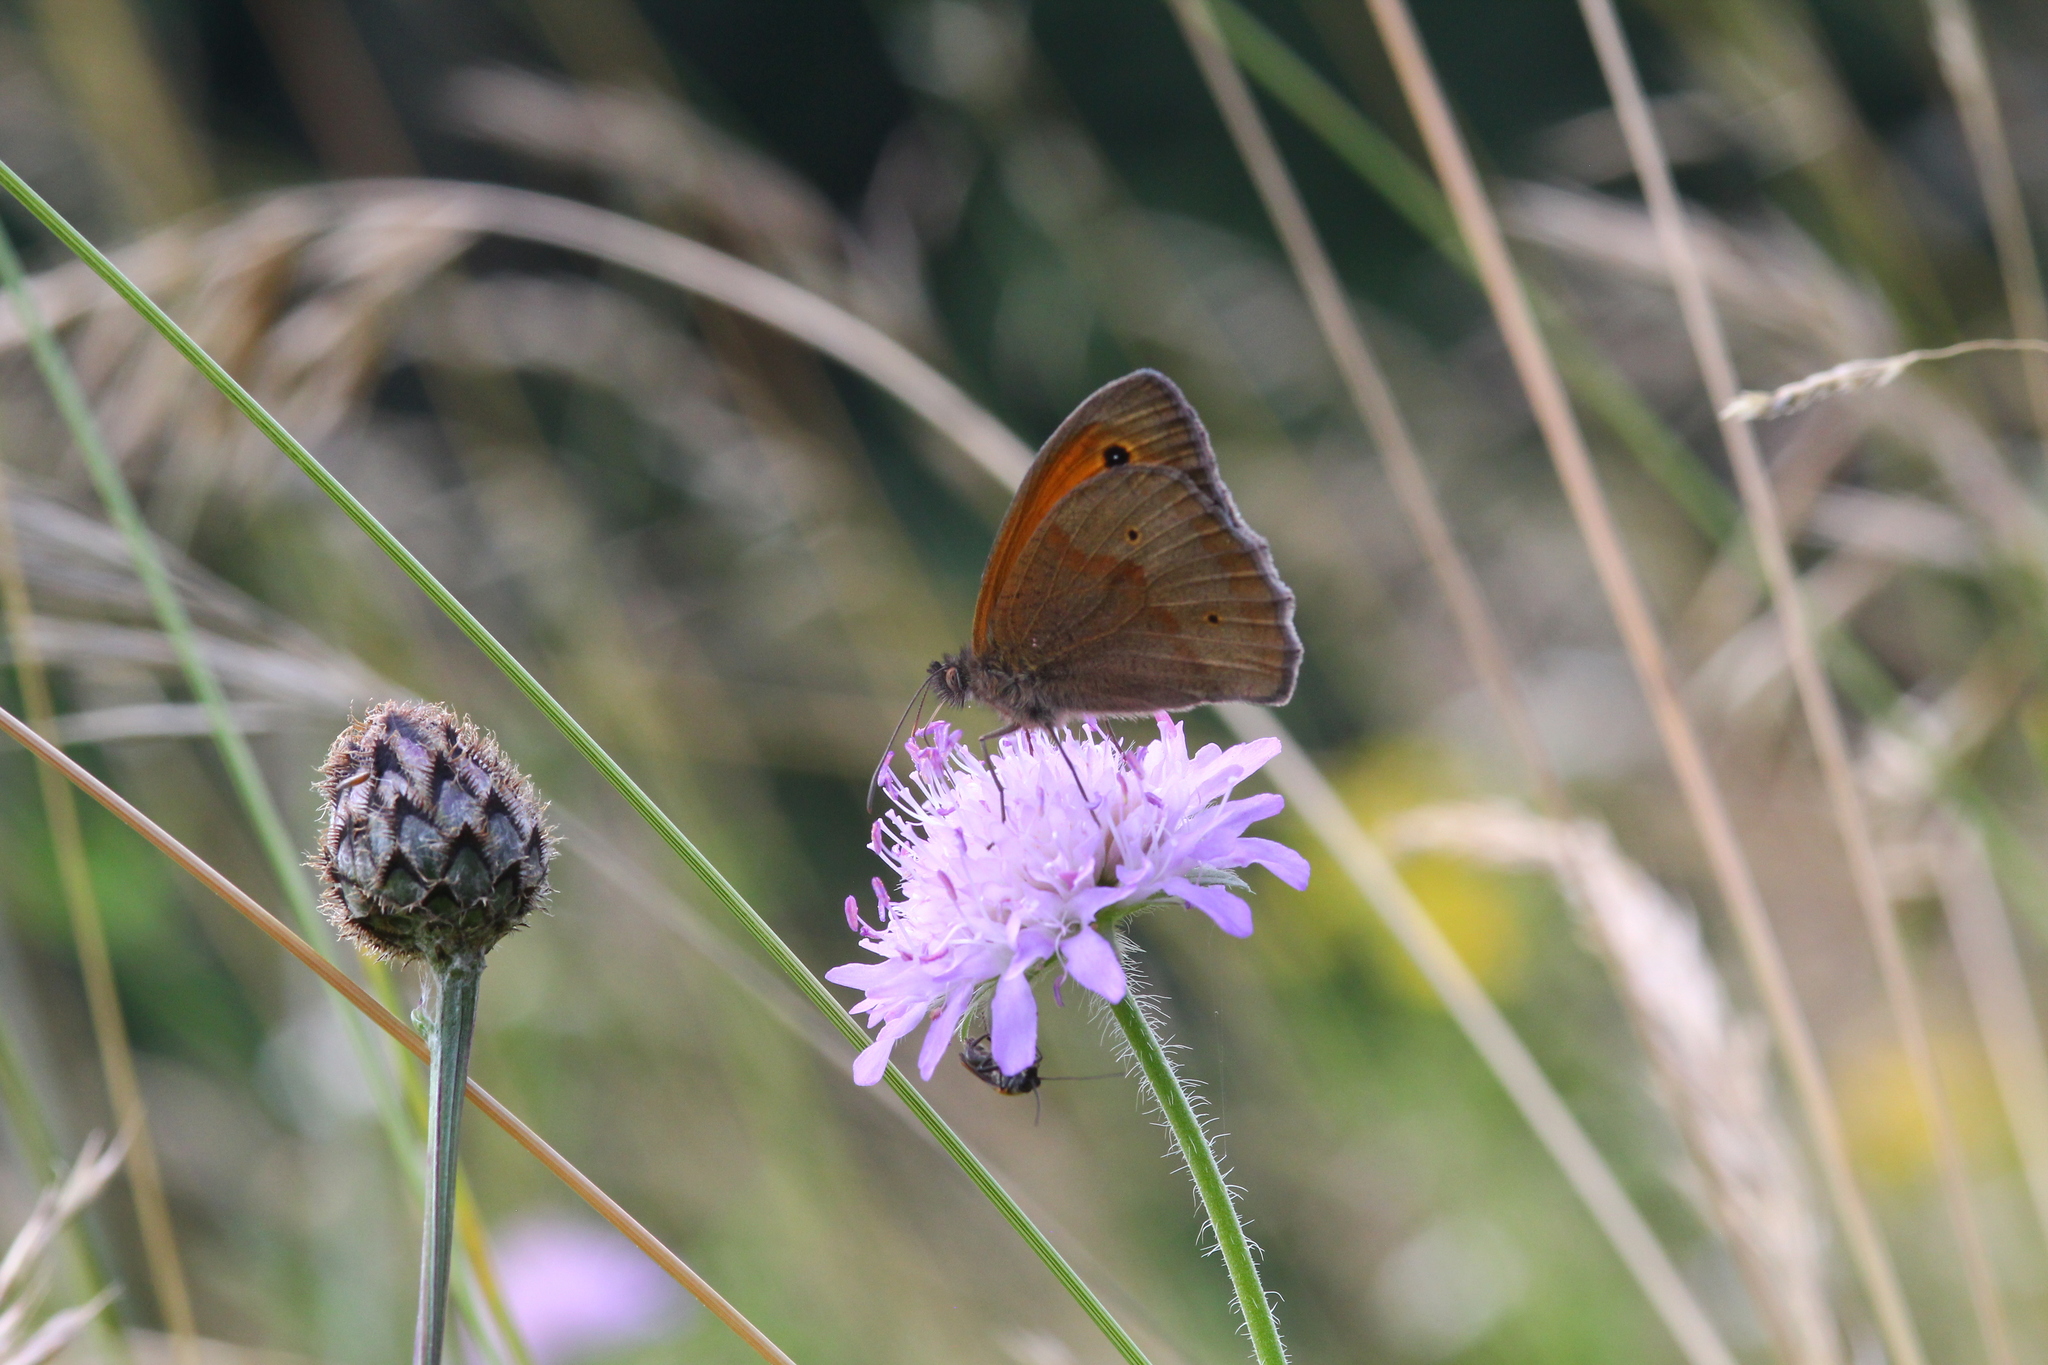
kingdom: Animalia
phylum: Arthropoda
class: Insecta
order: Lepidoptera
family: Nymphalidae
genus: Maniola
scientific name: Maniola jurtina
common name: Meadow brown
